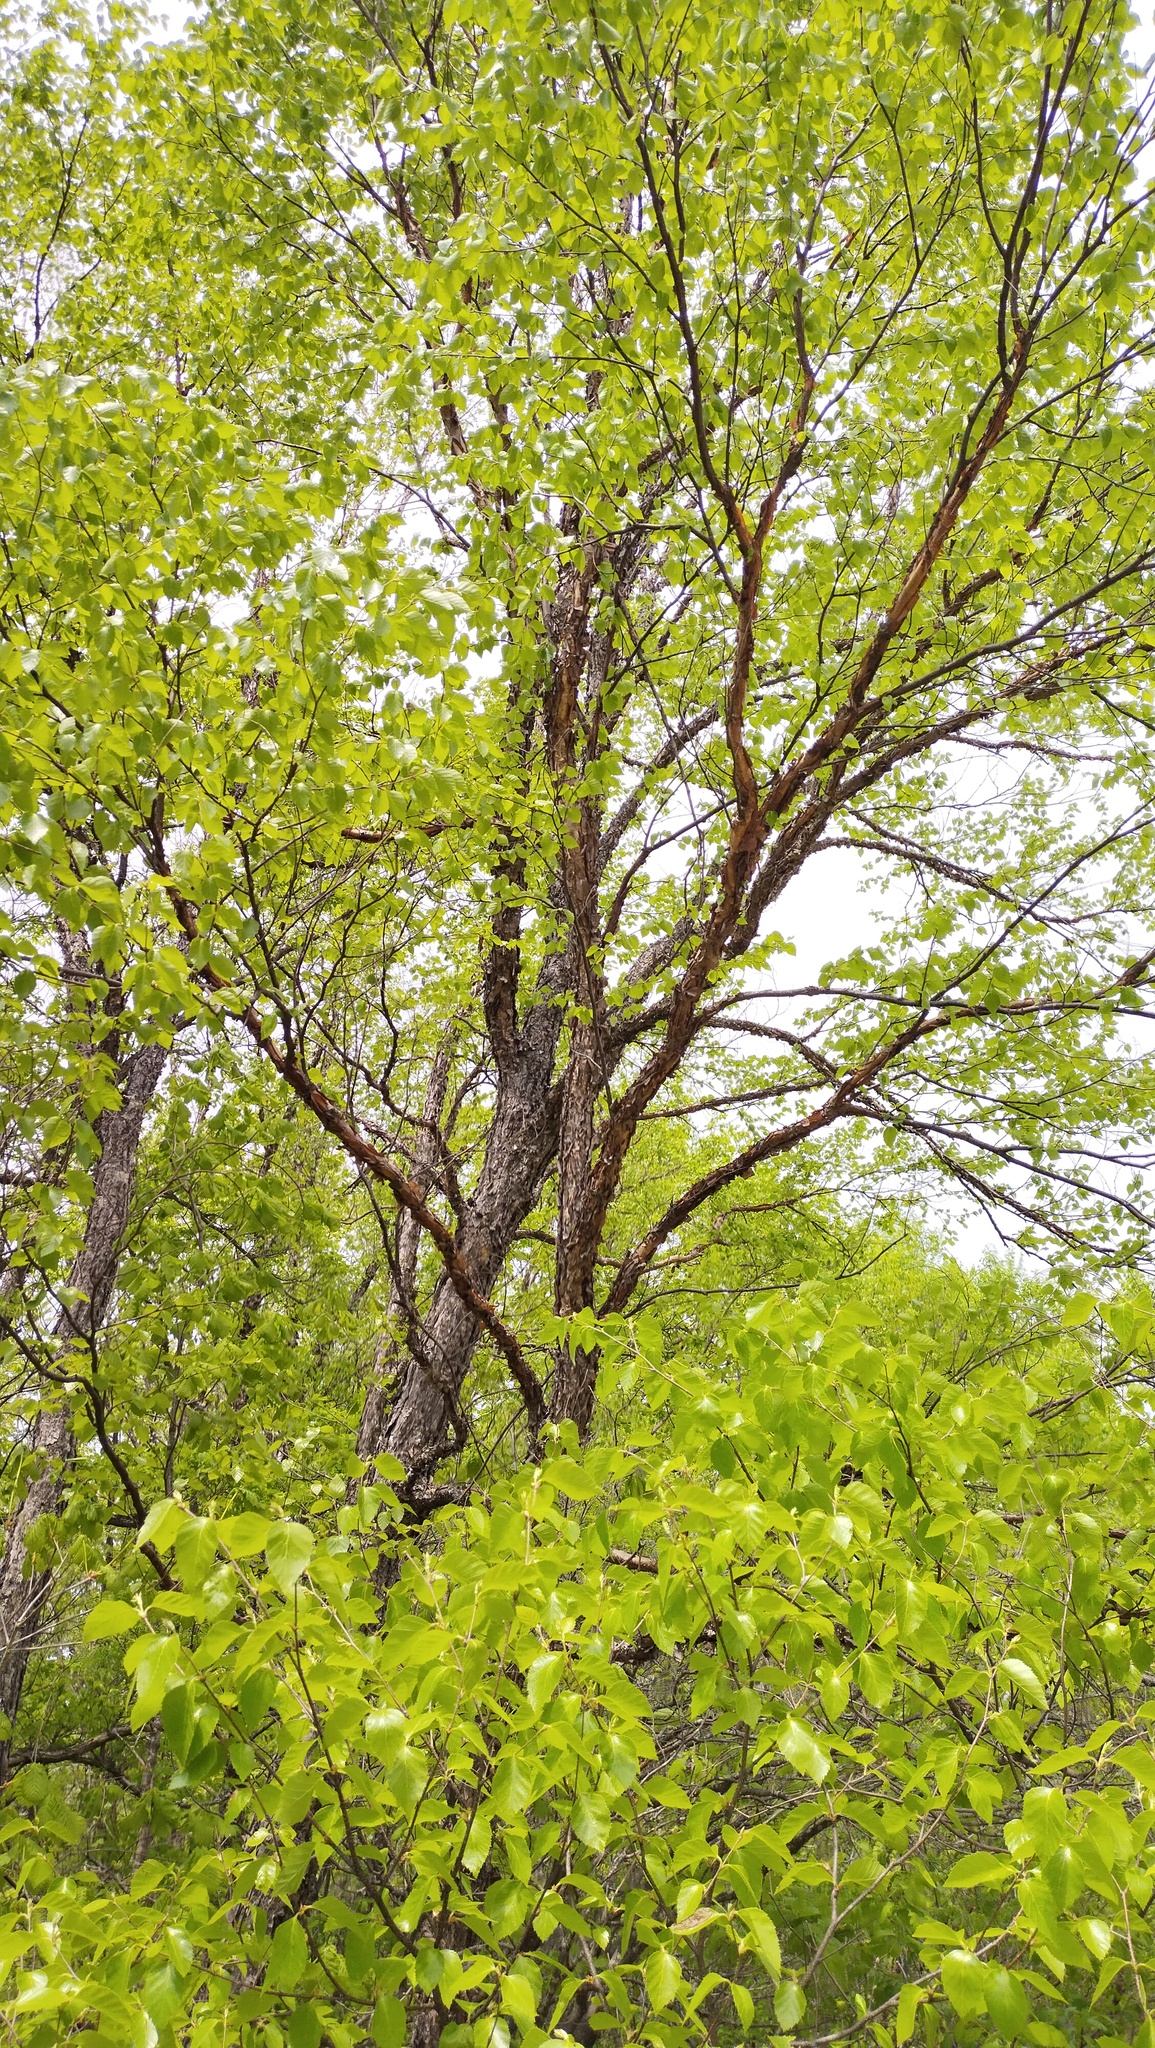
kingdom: Plantae
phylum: Tracheophyta
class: Magnoliopsida
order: Fagales
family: Betulaceae
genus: Betula
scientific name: Betula dauurica
